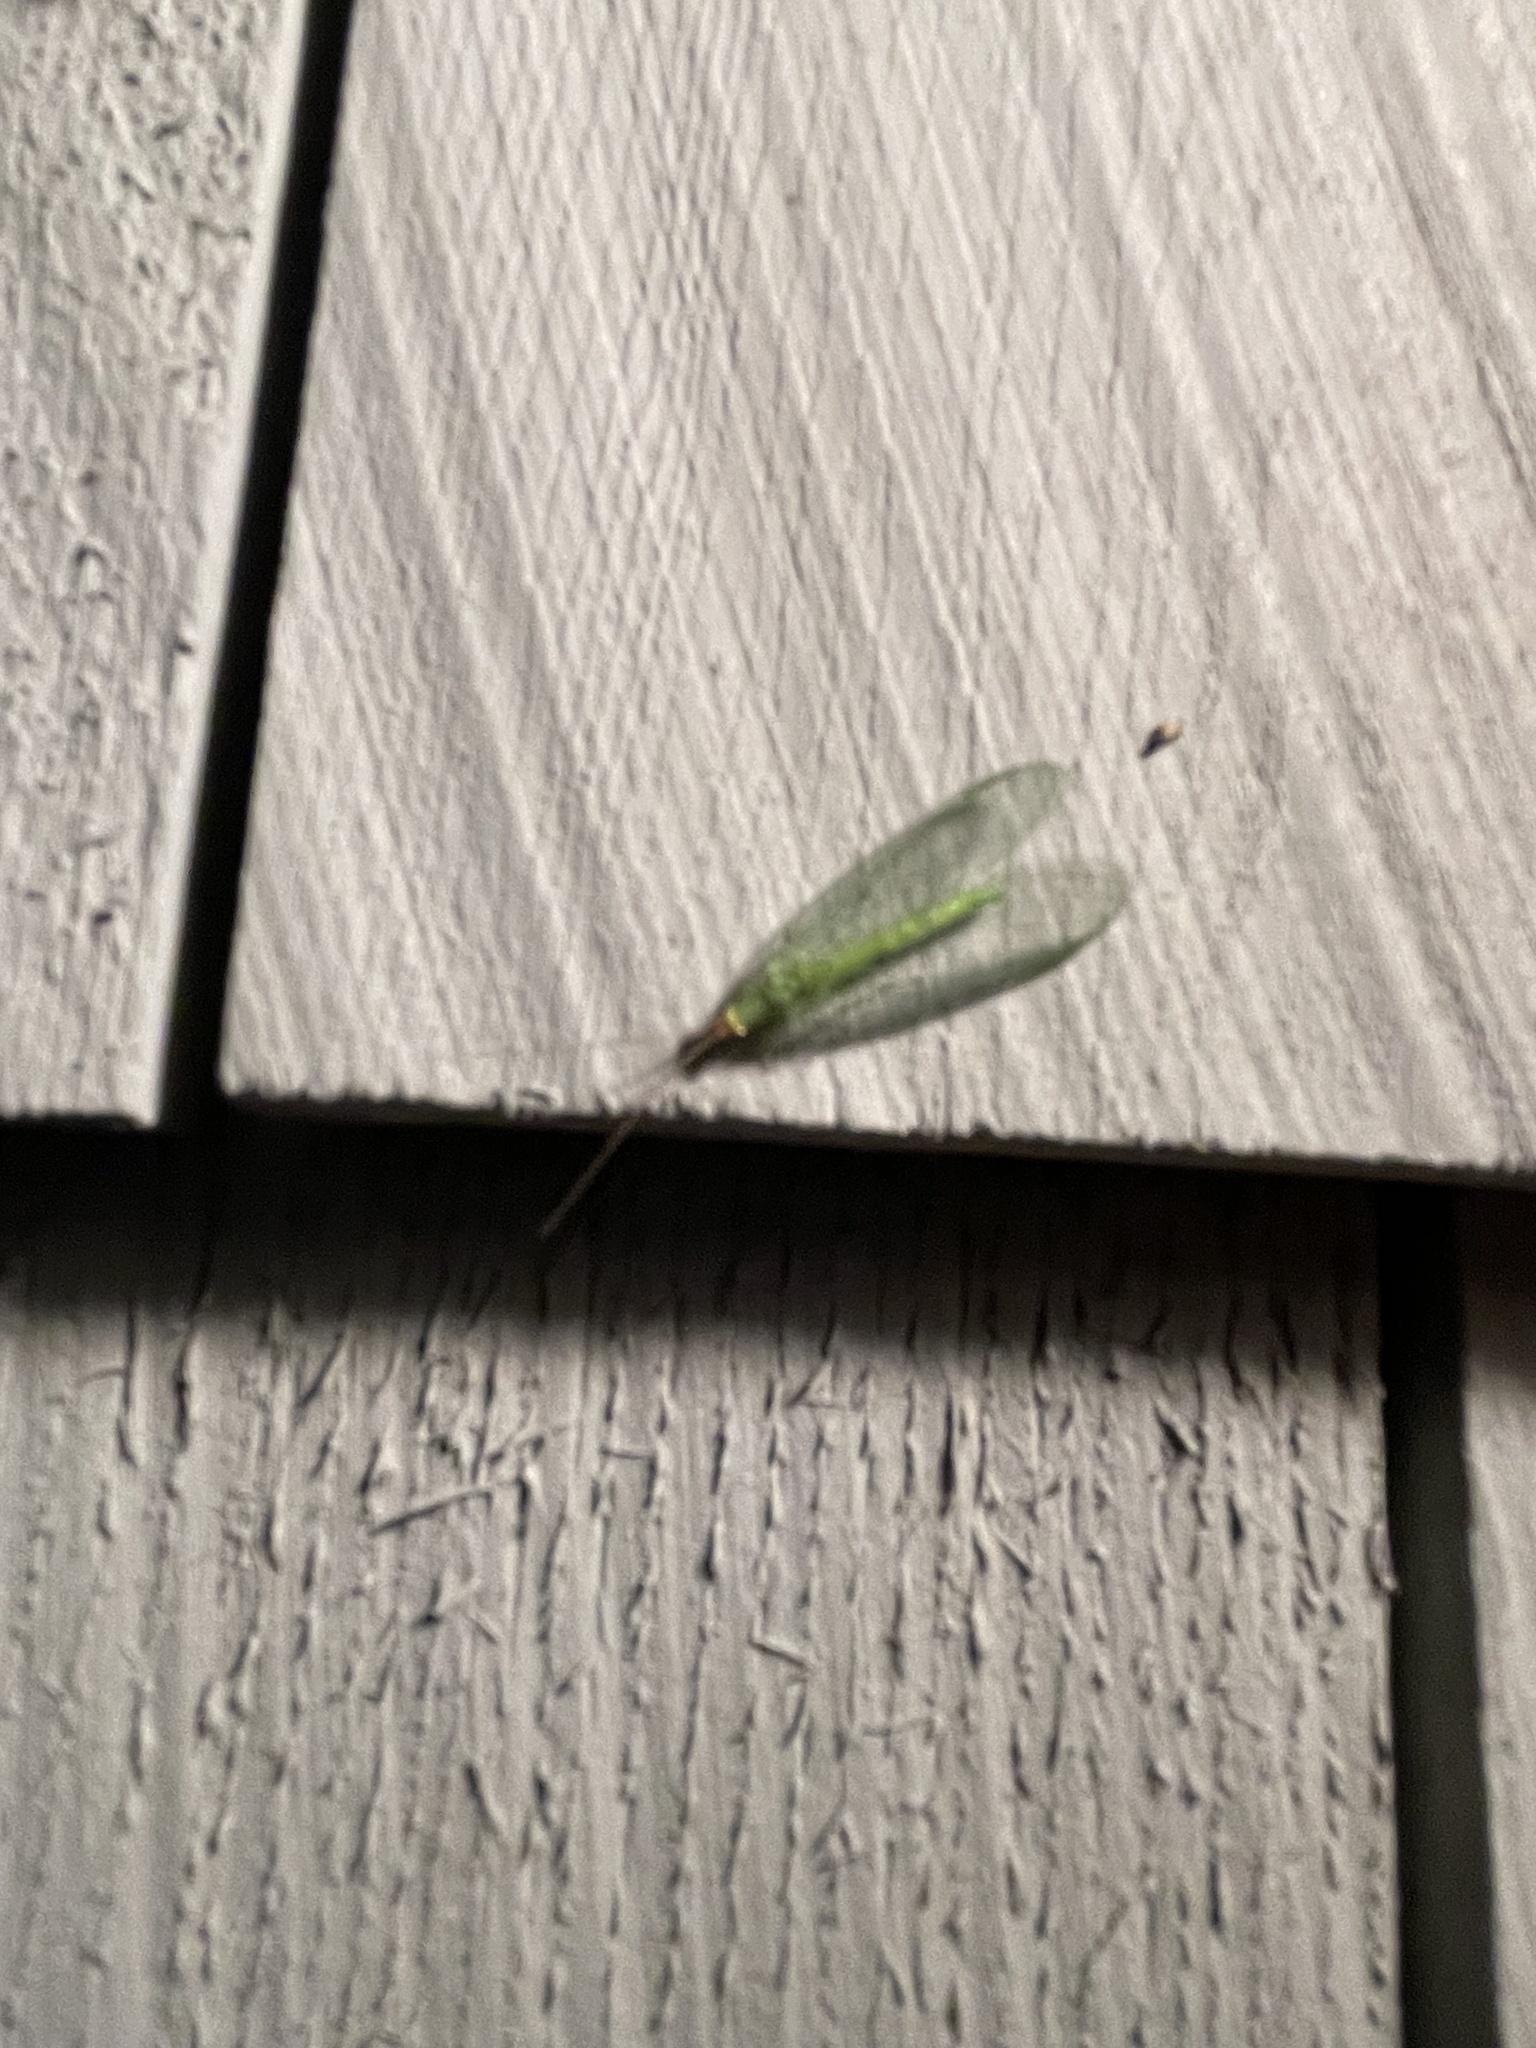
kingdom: Animalia
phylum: Arthropoda
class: Insecta
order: Neuroptera
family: Chrysopidae
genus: Chrysopa
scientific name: Chrysopa oculata
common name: Golden-eyed lacewing
